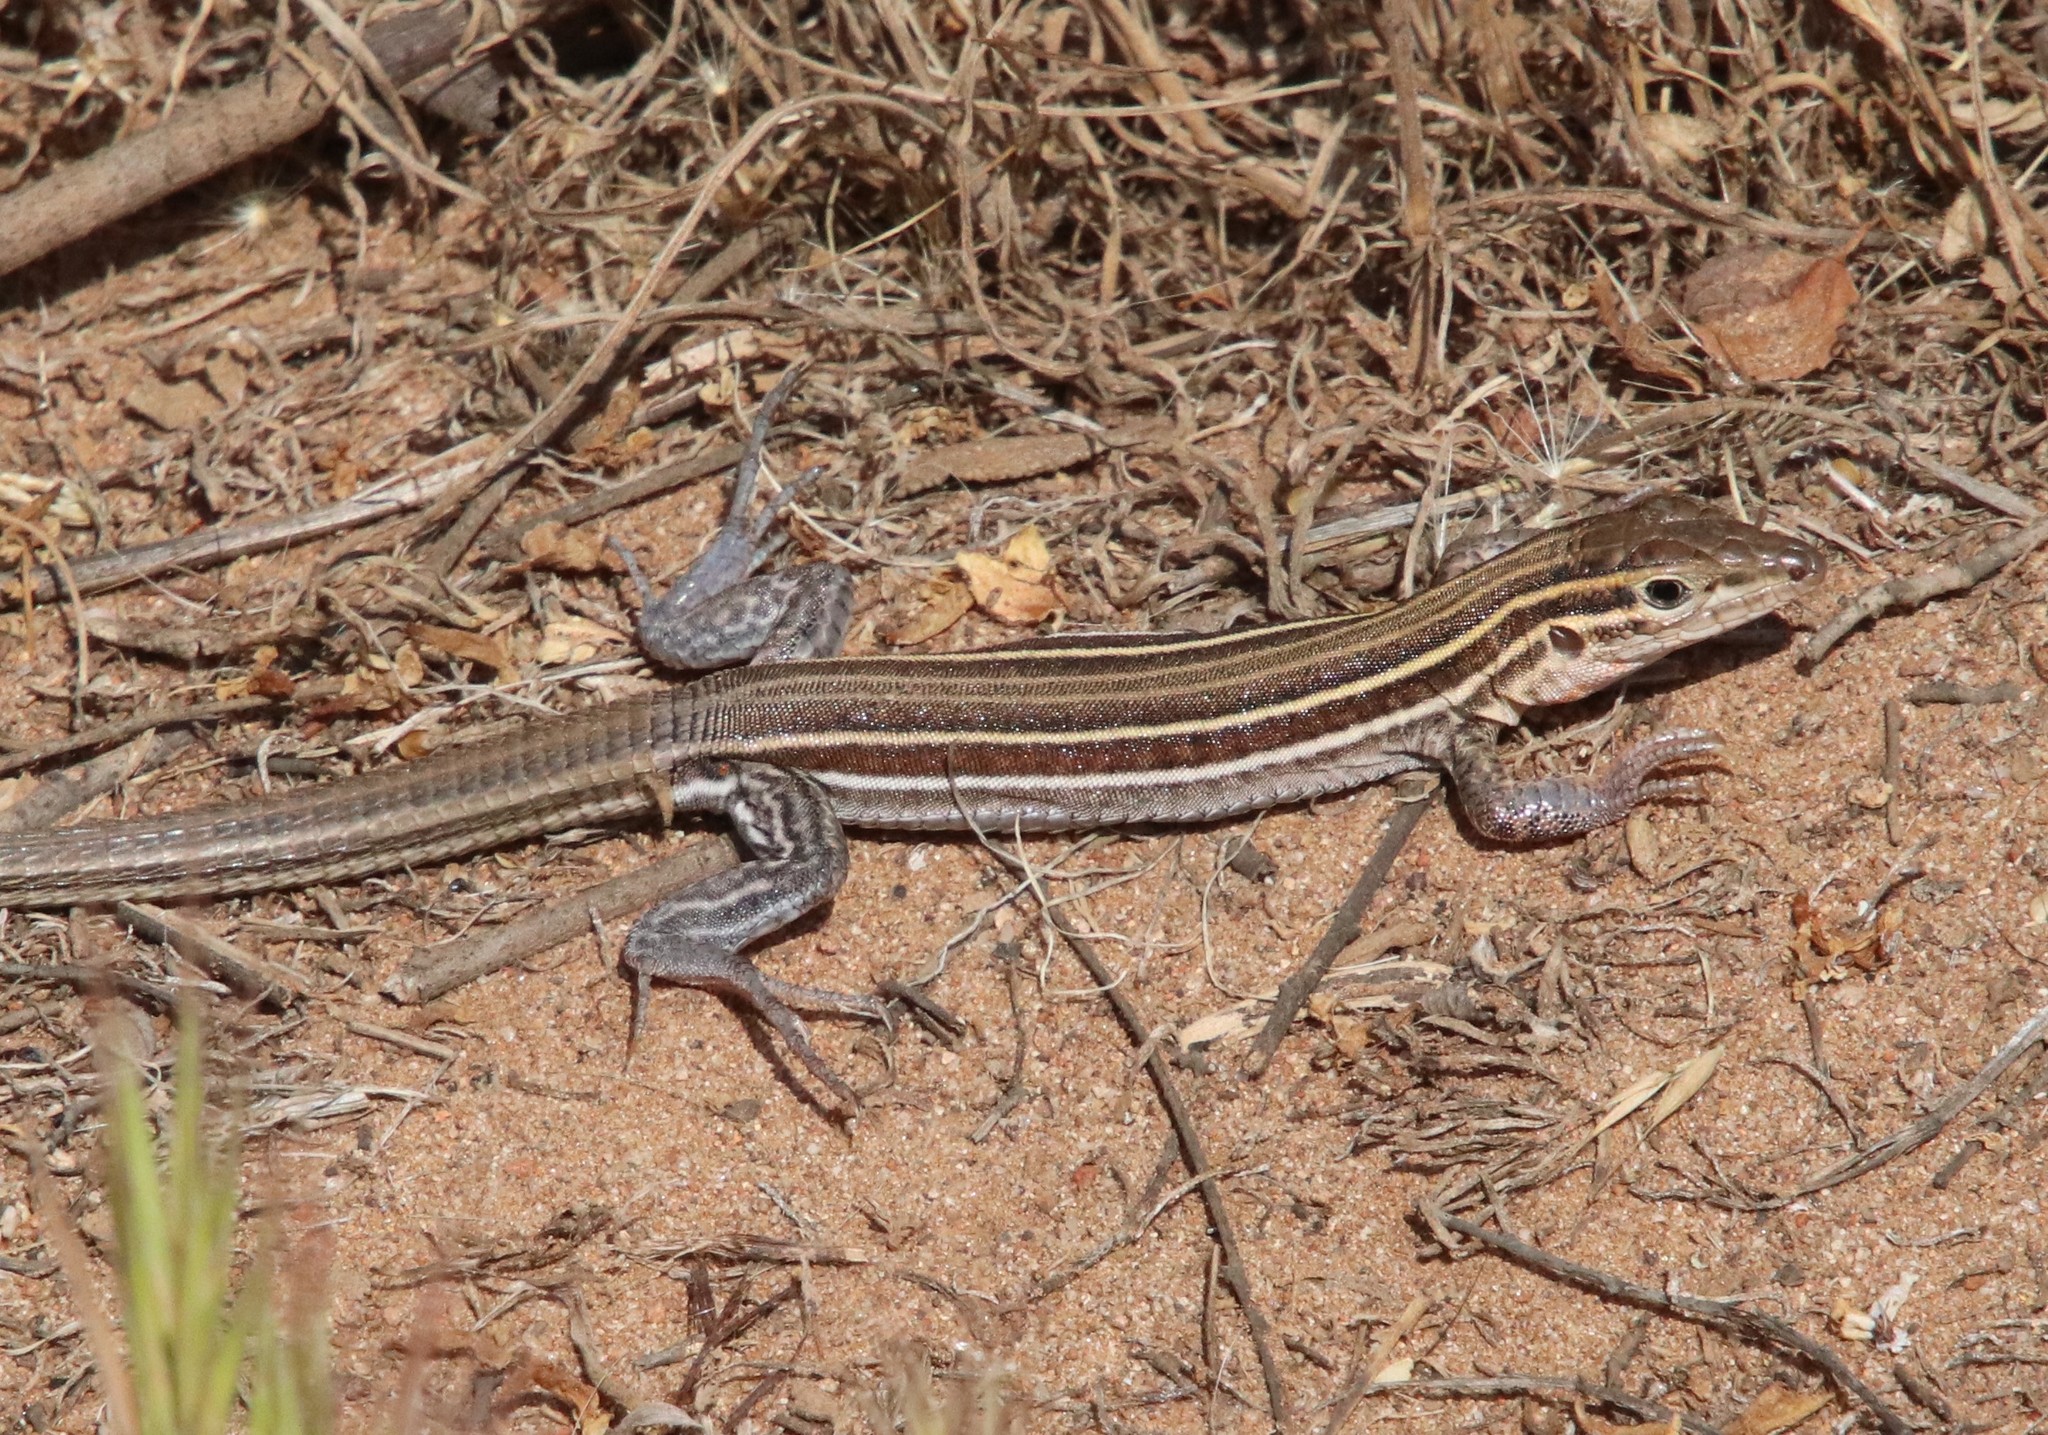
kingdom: Animalia
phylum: Chordata
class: Squamata
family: Teiidae
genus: Aspidoscelis
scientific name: Aspidoscelis hyperythrus
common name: Orange-throated race-runner
